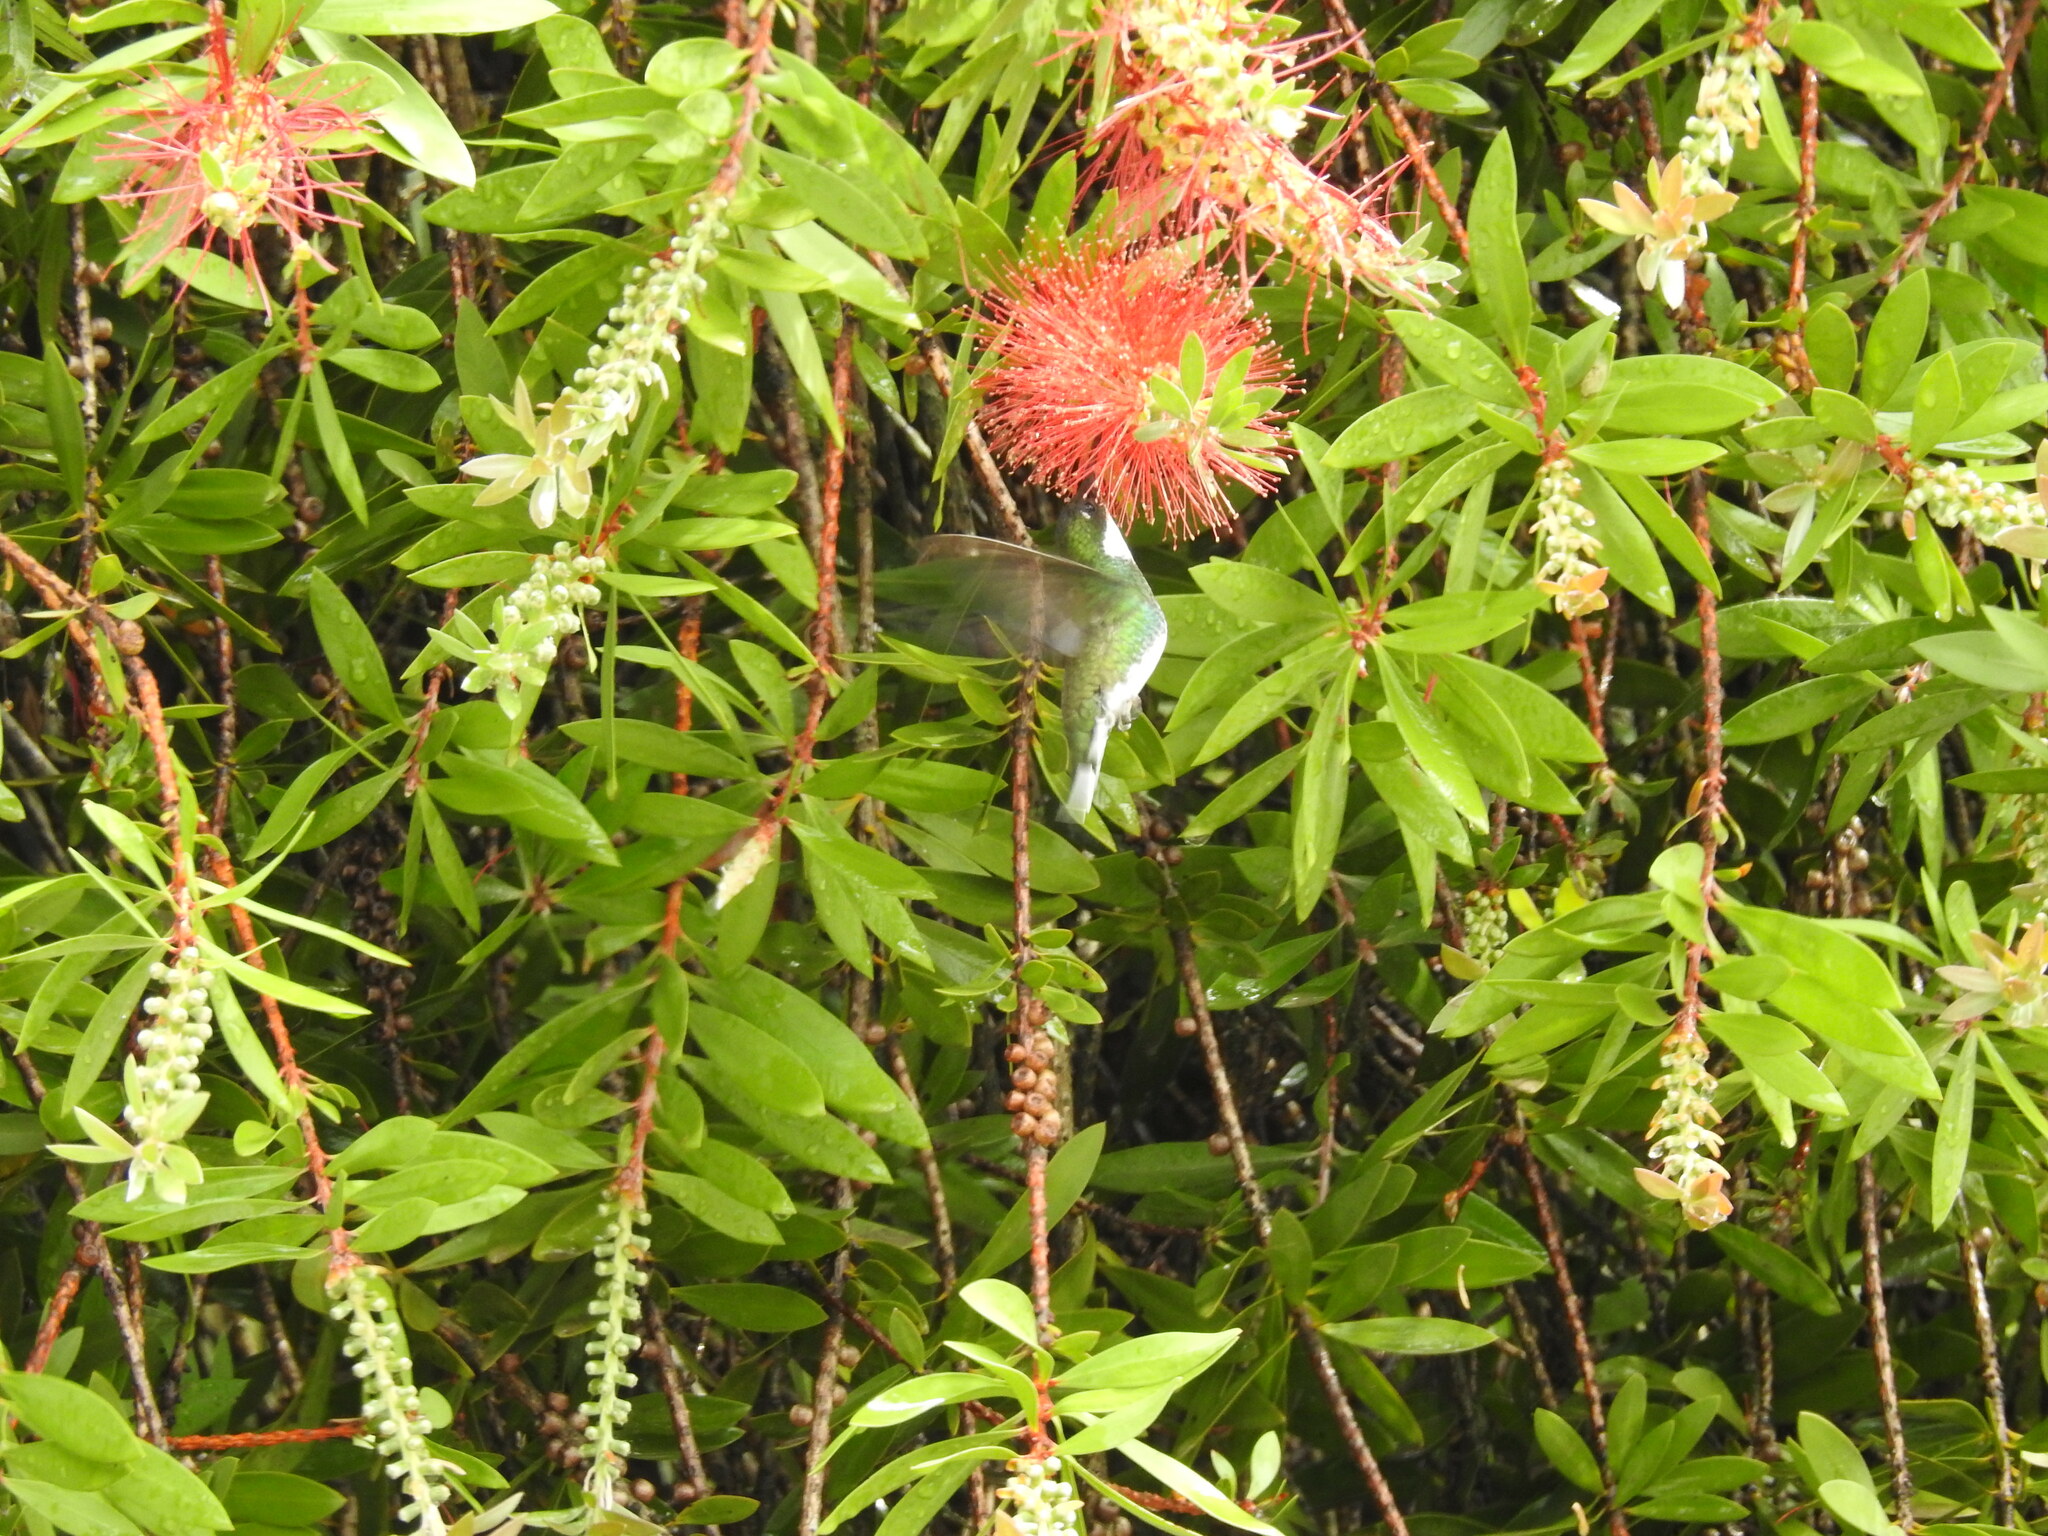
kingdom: Animalia
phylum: Chordata
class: Aves
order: Apodiformes
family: Trochilidae
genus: Leucochloris
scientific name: Leucochloris albicollis
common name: White-throated hummingbird
